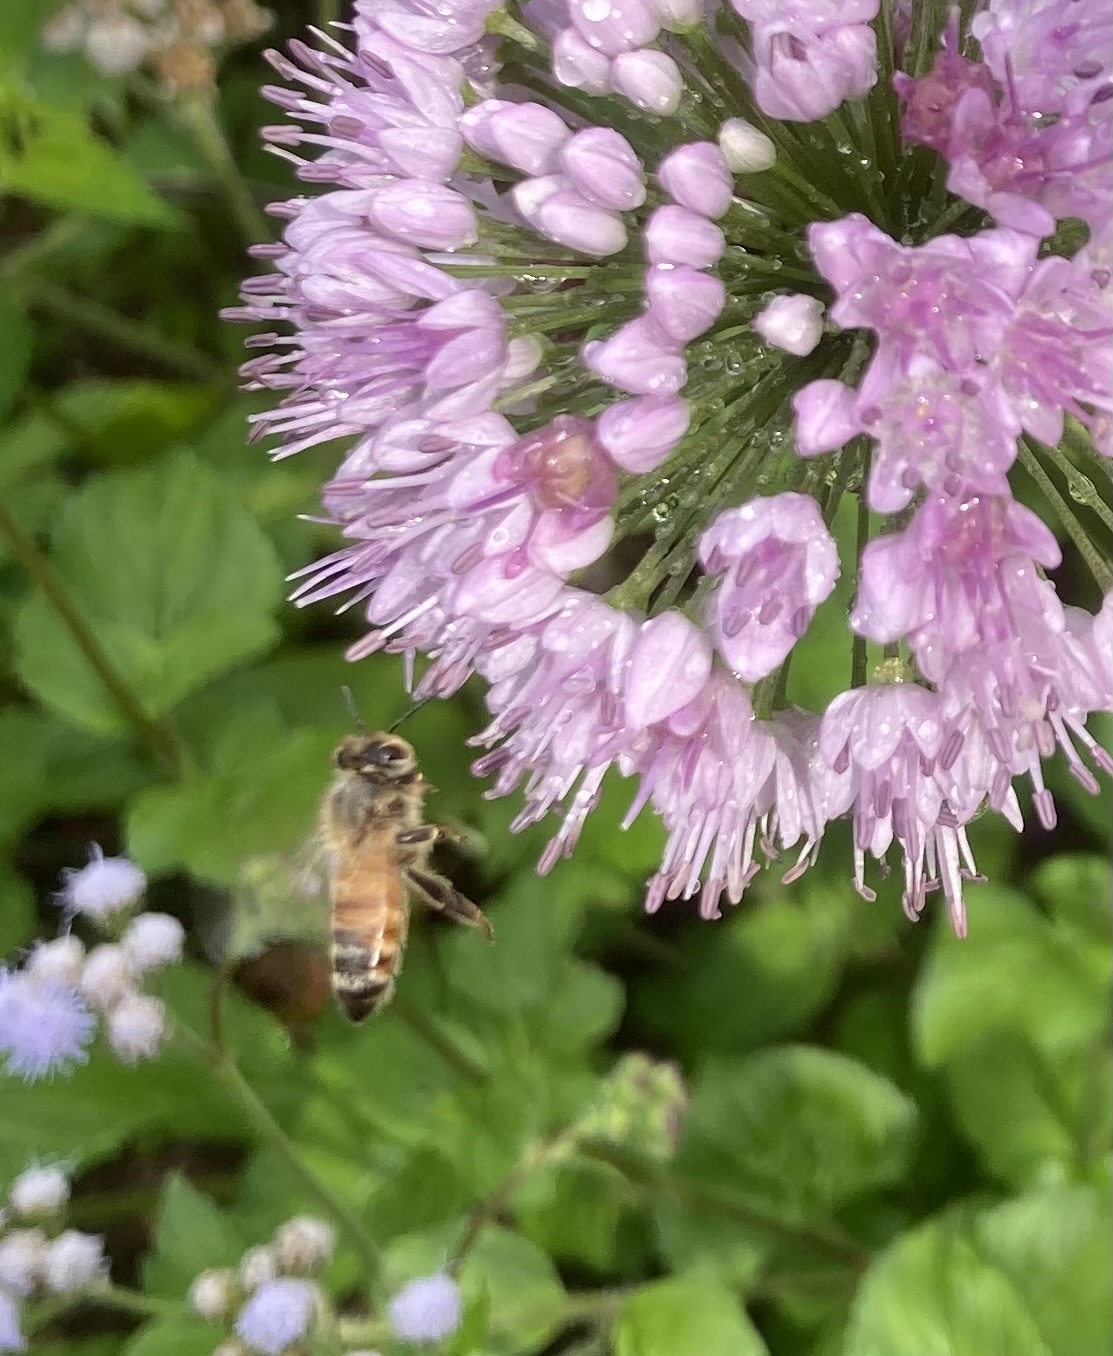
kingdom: Animalia
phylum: Arthropoda
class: Insecta
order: Hymenoptera
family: Apidae
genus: Apis
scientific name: Apis mellifera
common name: Honey bee
